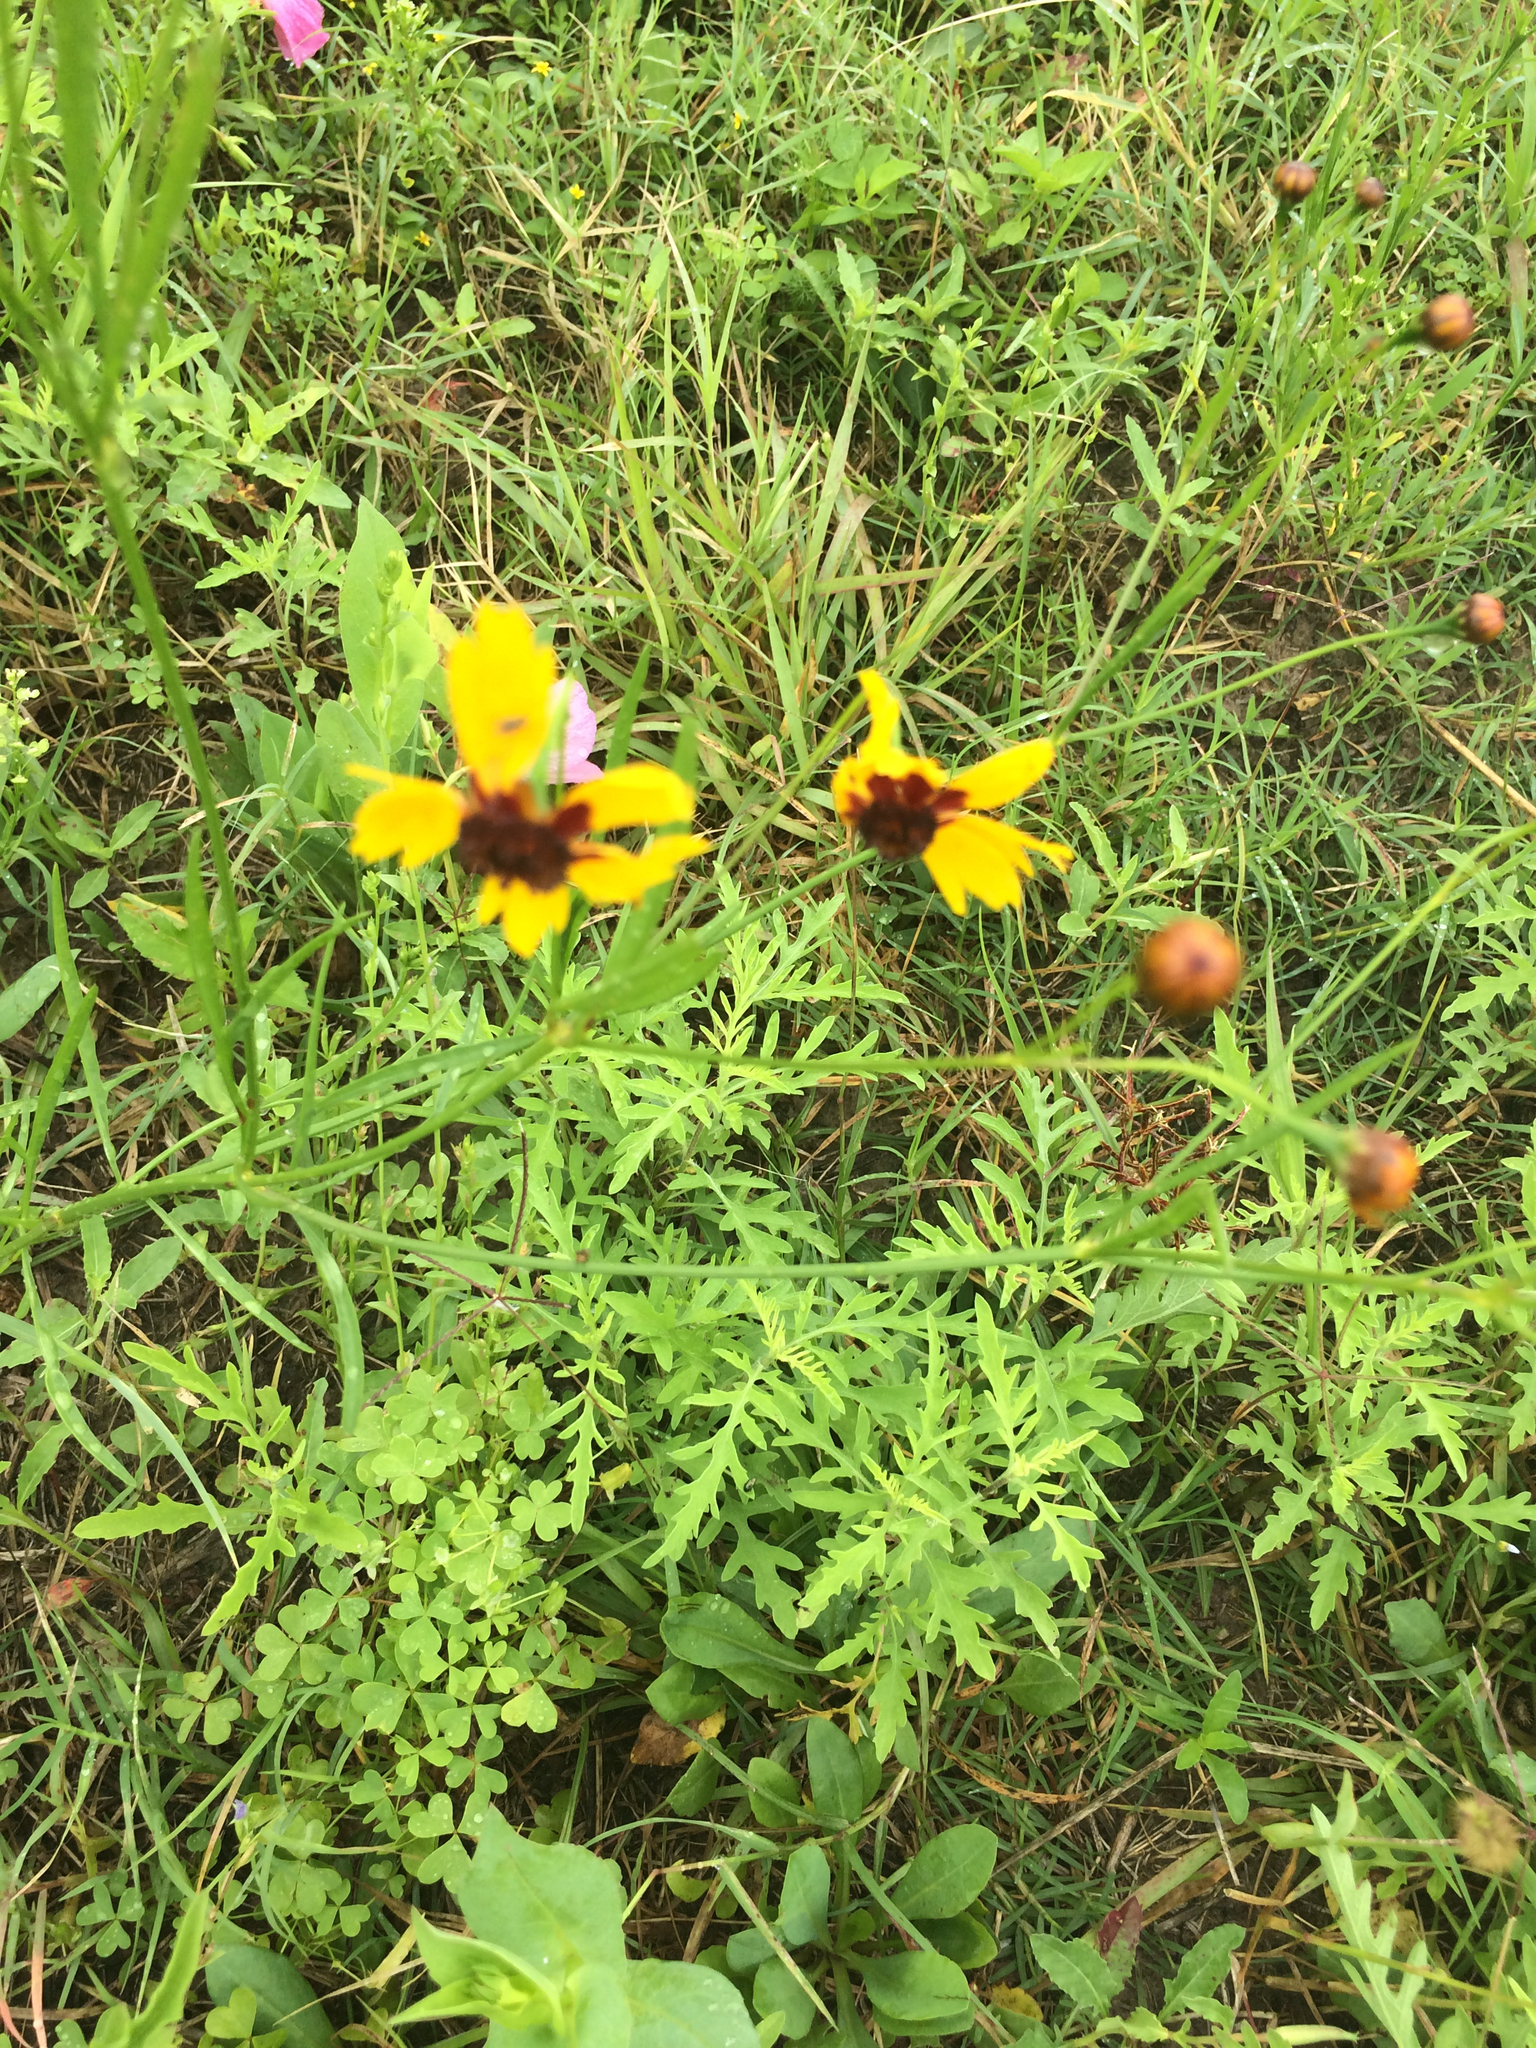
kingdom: Plantae
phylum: Tracheophyta
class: Magnoliopsida
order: Asterales
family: Asteraceae
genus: Coreopsis
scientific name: Coreopsis tinctoria
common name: Garden tickseed
